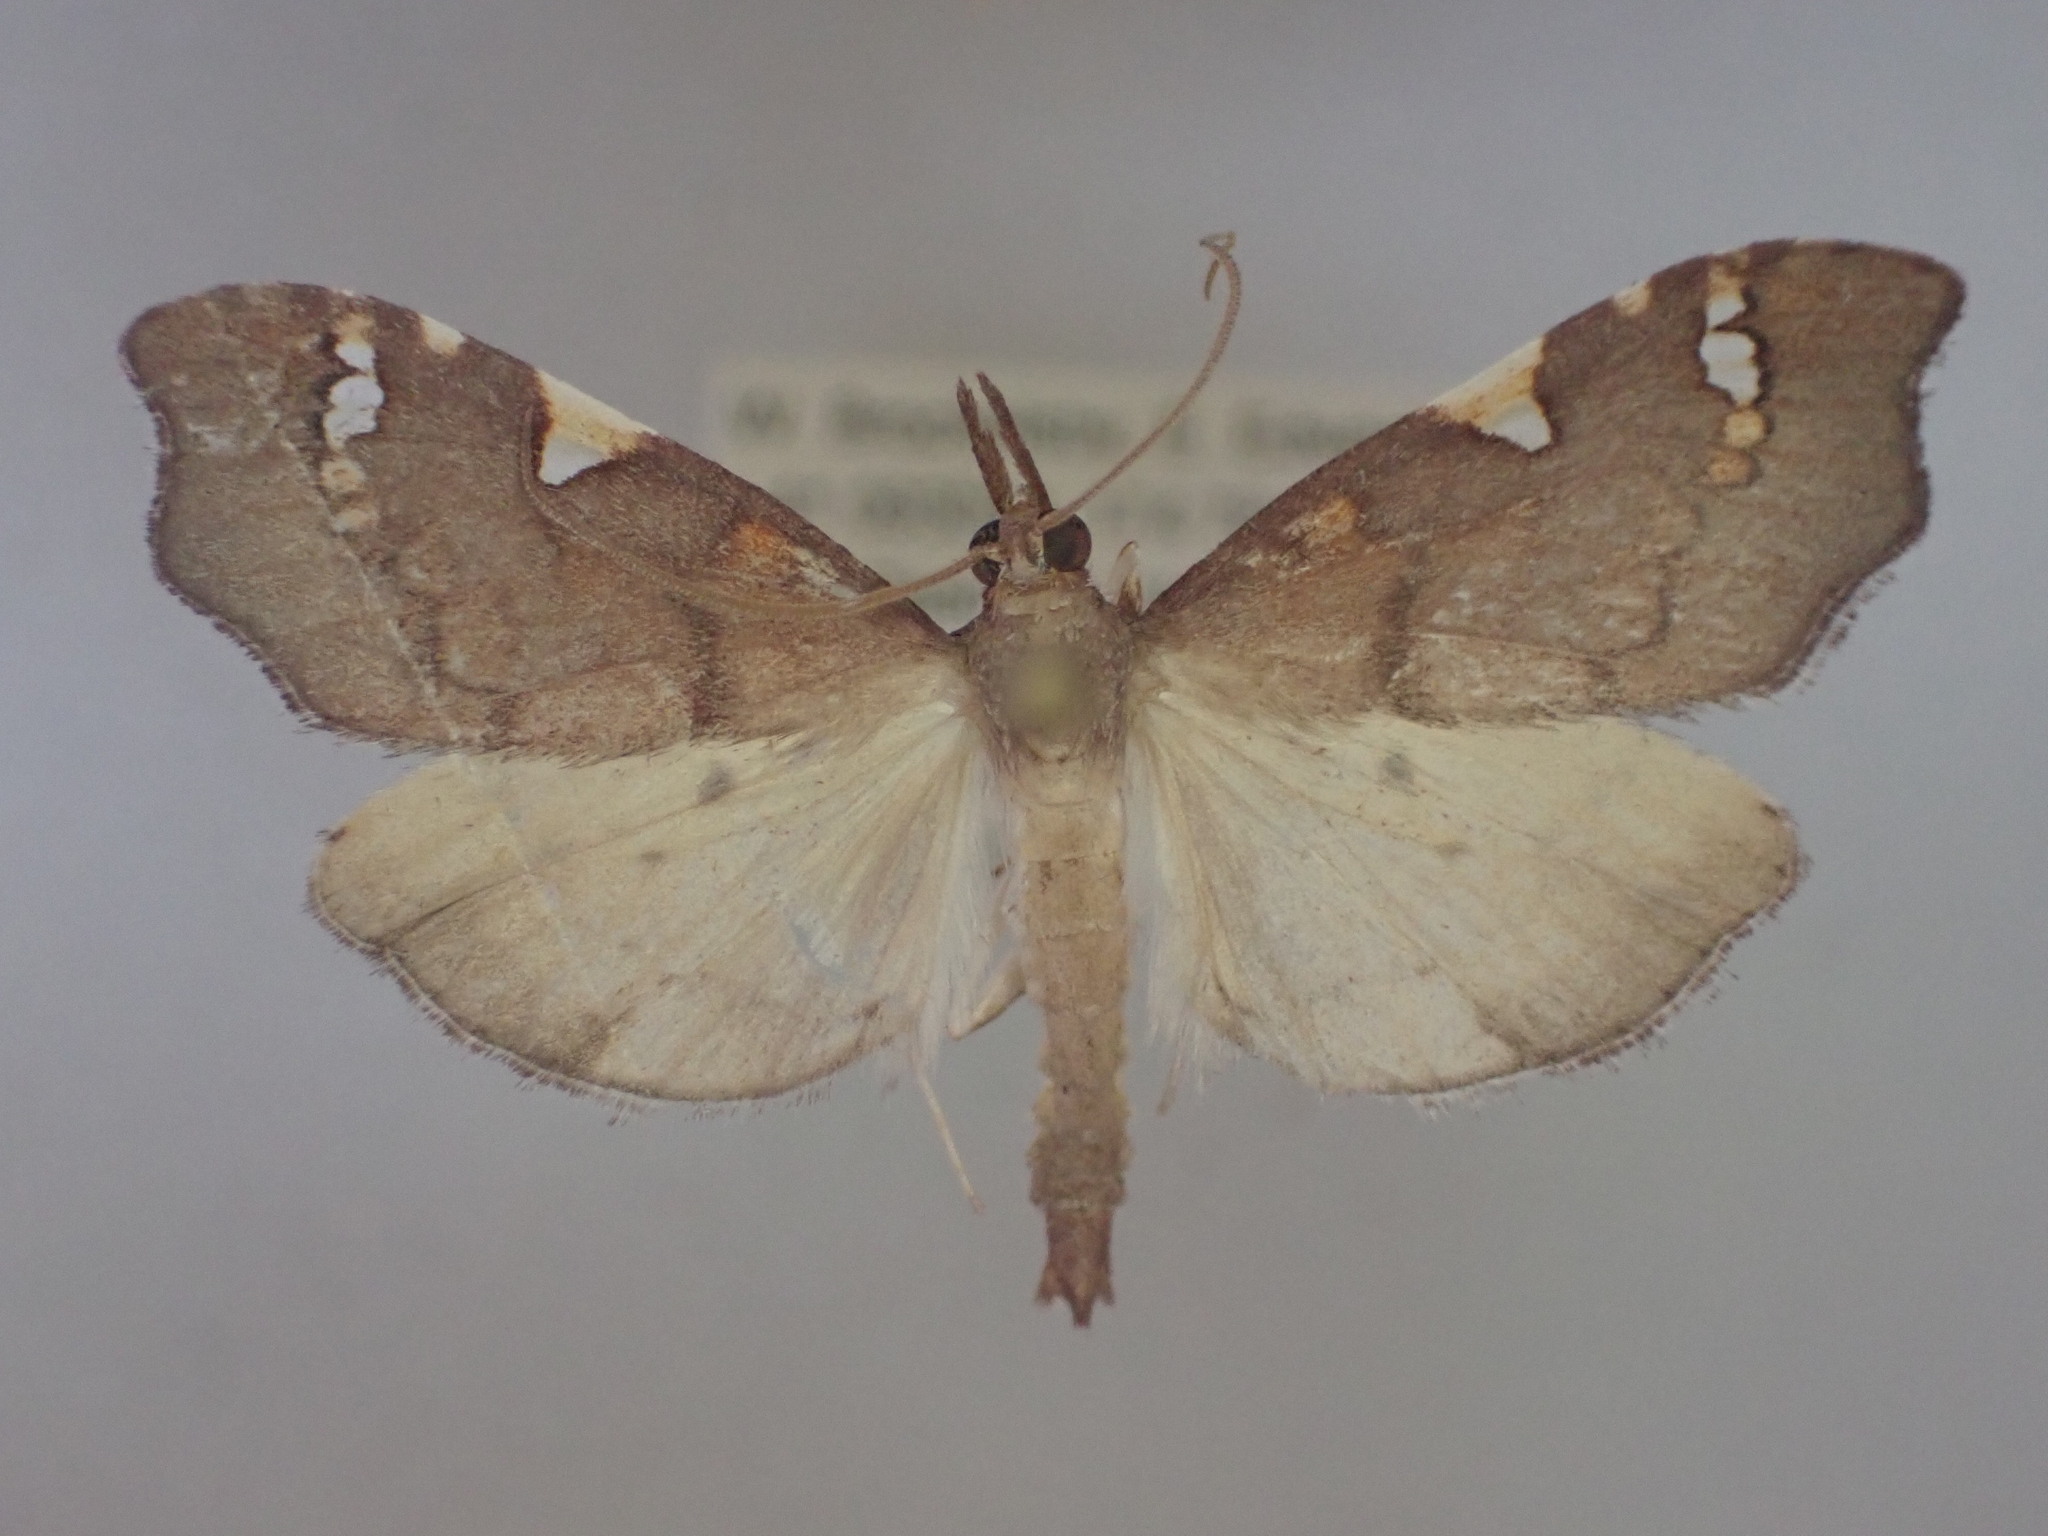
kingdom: Animalia
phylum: Arthropoda
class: Insecta
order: Lepidoptera
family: Crambidae
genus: Deana
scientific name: Deana hybreasalis
